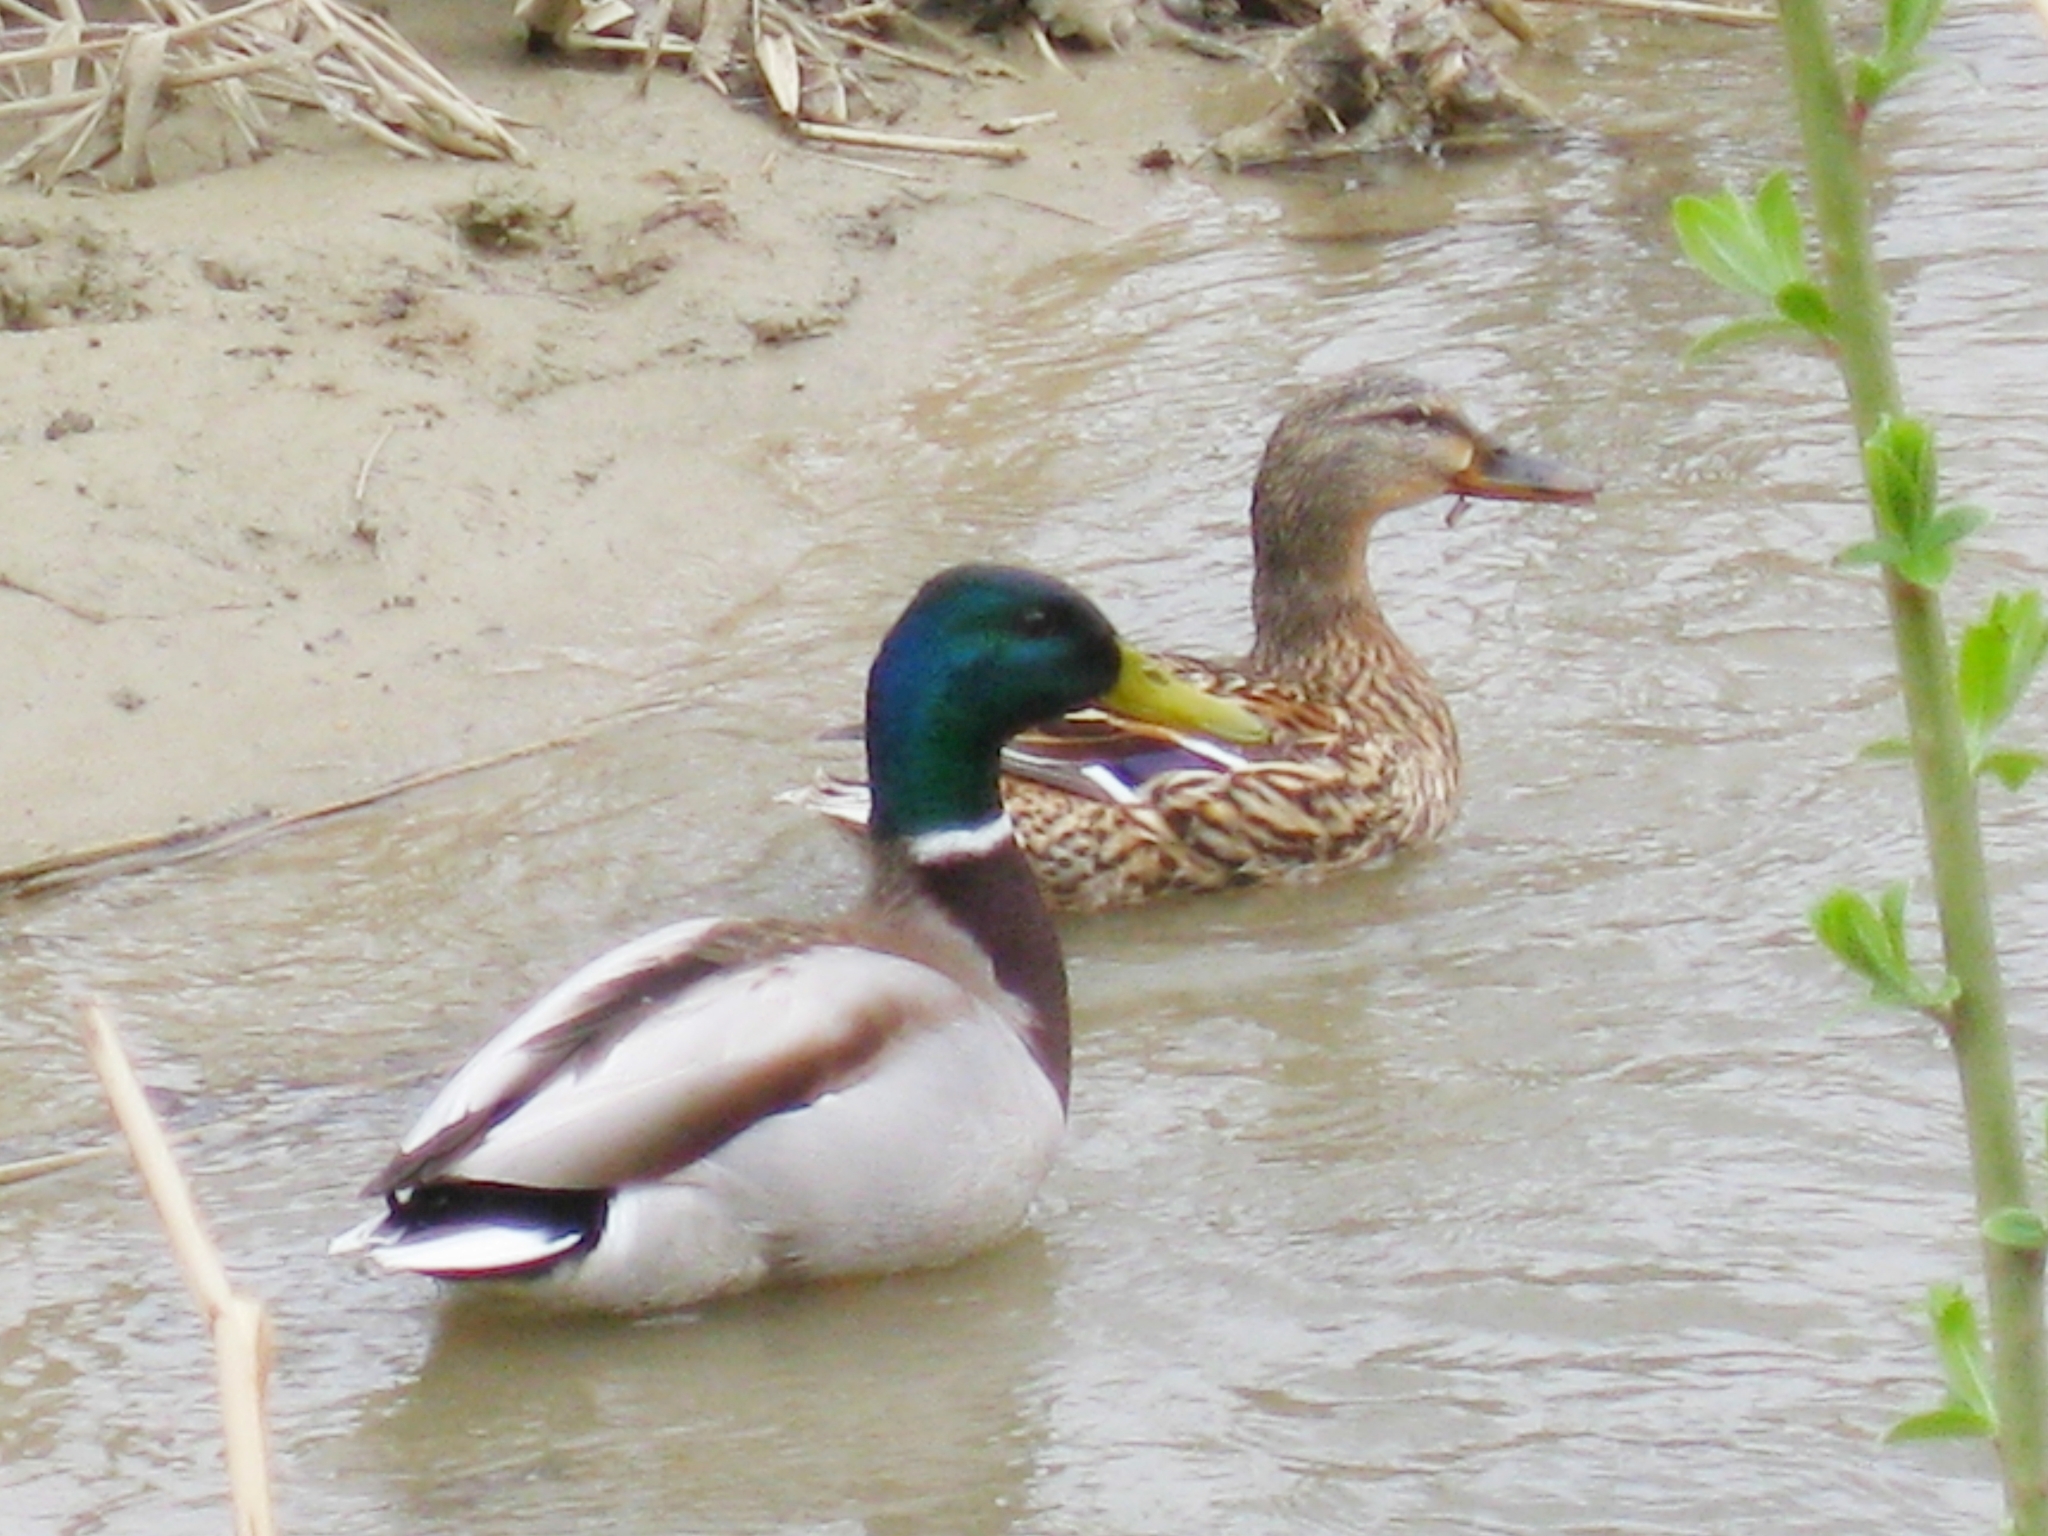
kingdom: Animalia
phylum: Chordata
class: Aves
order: Anseriformes
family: Anatidae
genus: Anas
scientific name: Anas platyrhynchos
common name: Mallard
